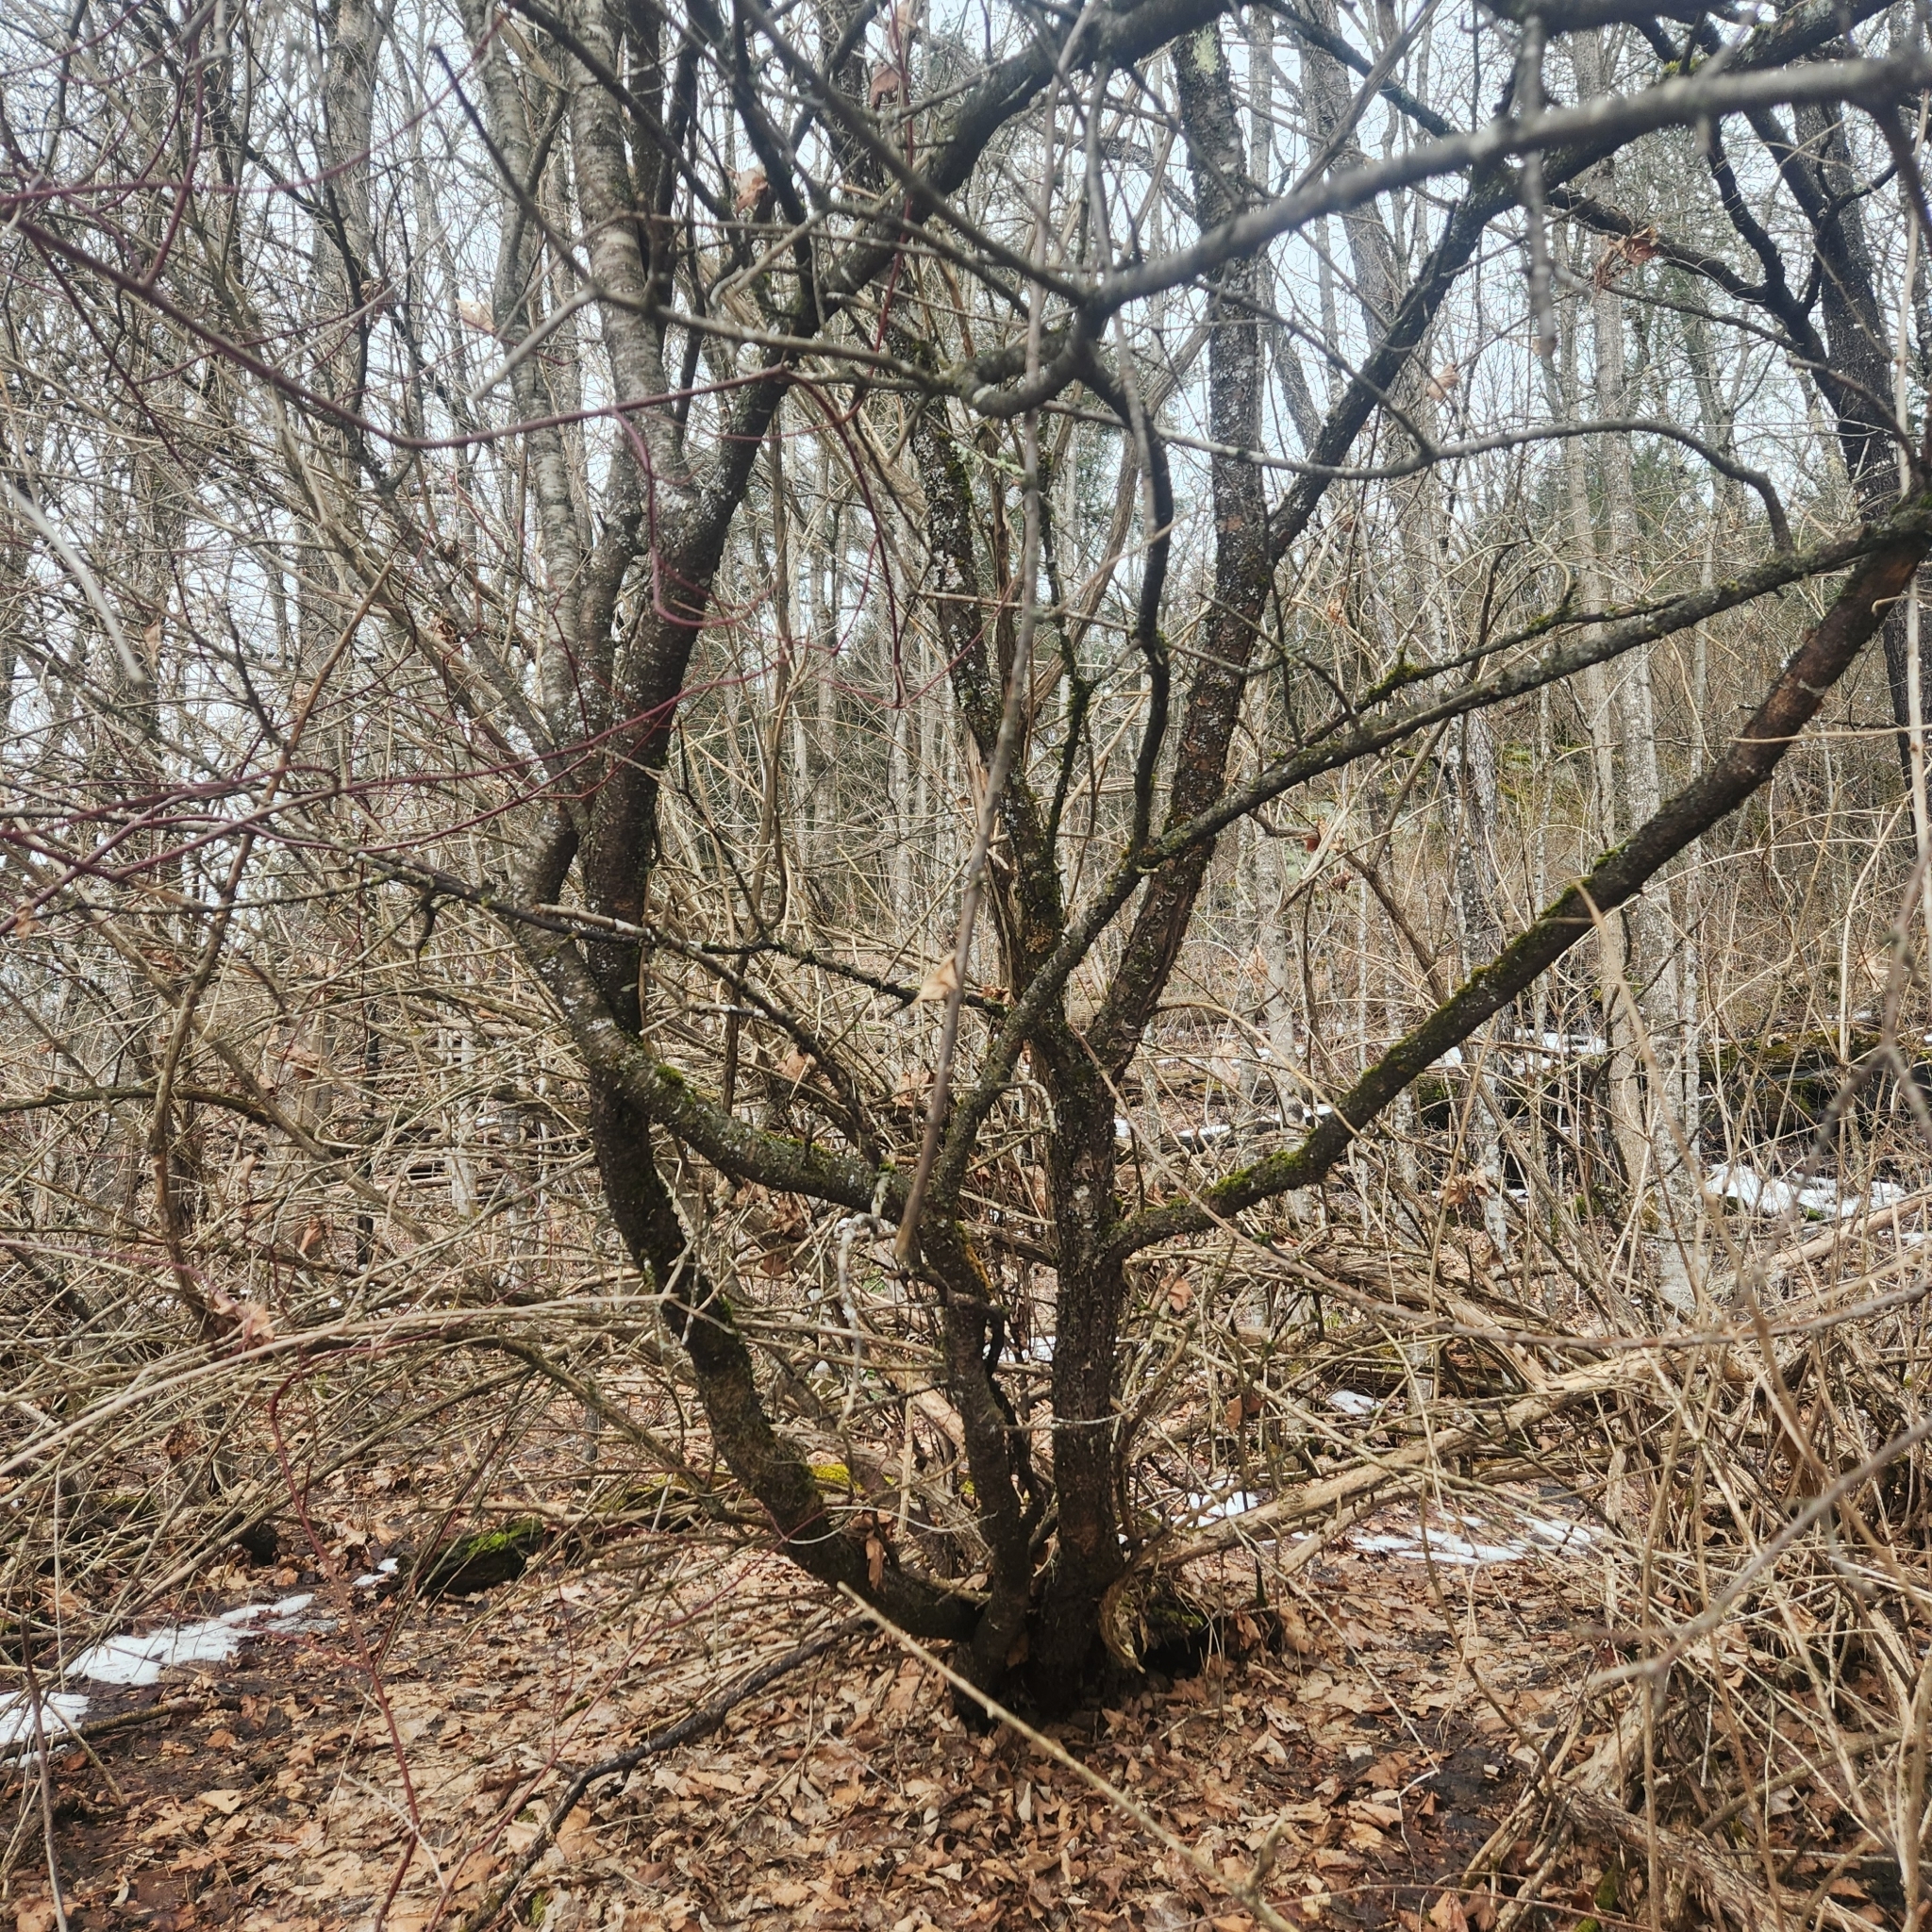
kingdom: Plantae
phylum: Tracheophyta
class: Magnoliopsida
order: Rosales
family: Rhamnaceae
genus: Rhamnus
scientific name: Rhamnus cathartica
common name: Common buckthorn
